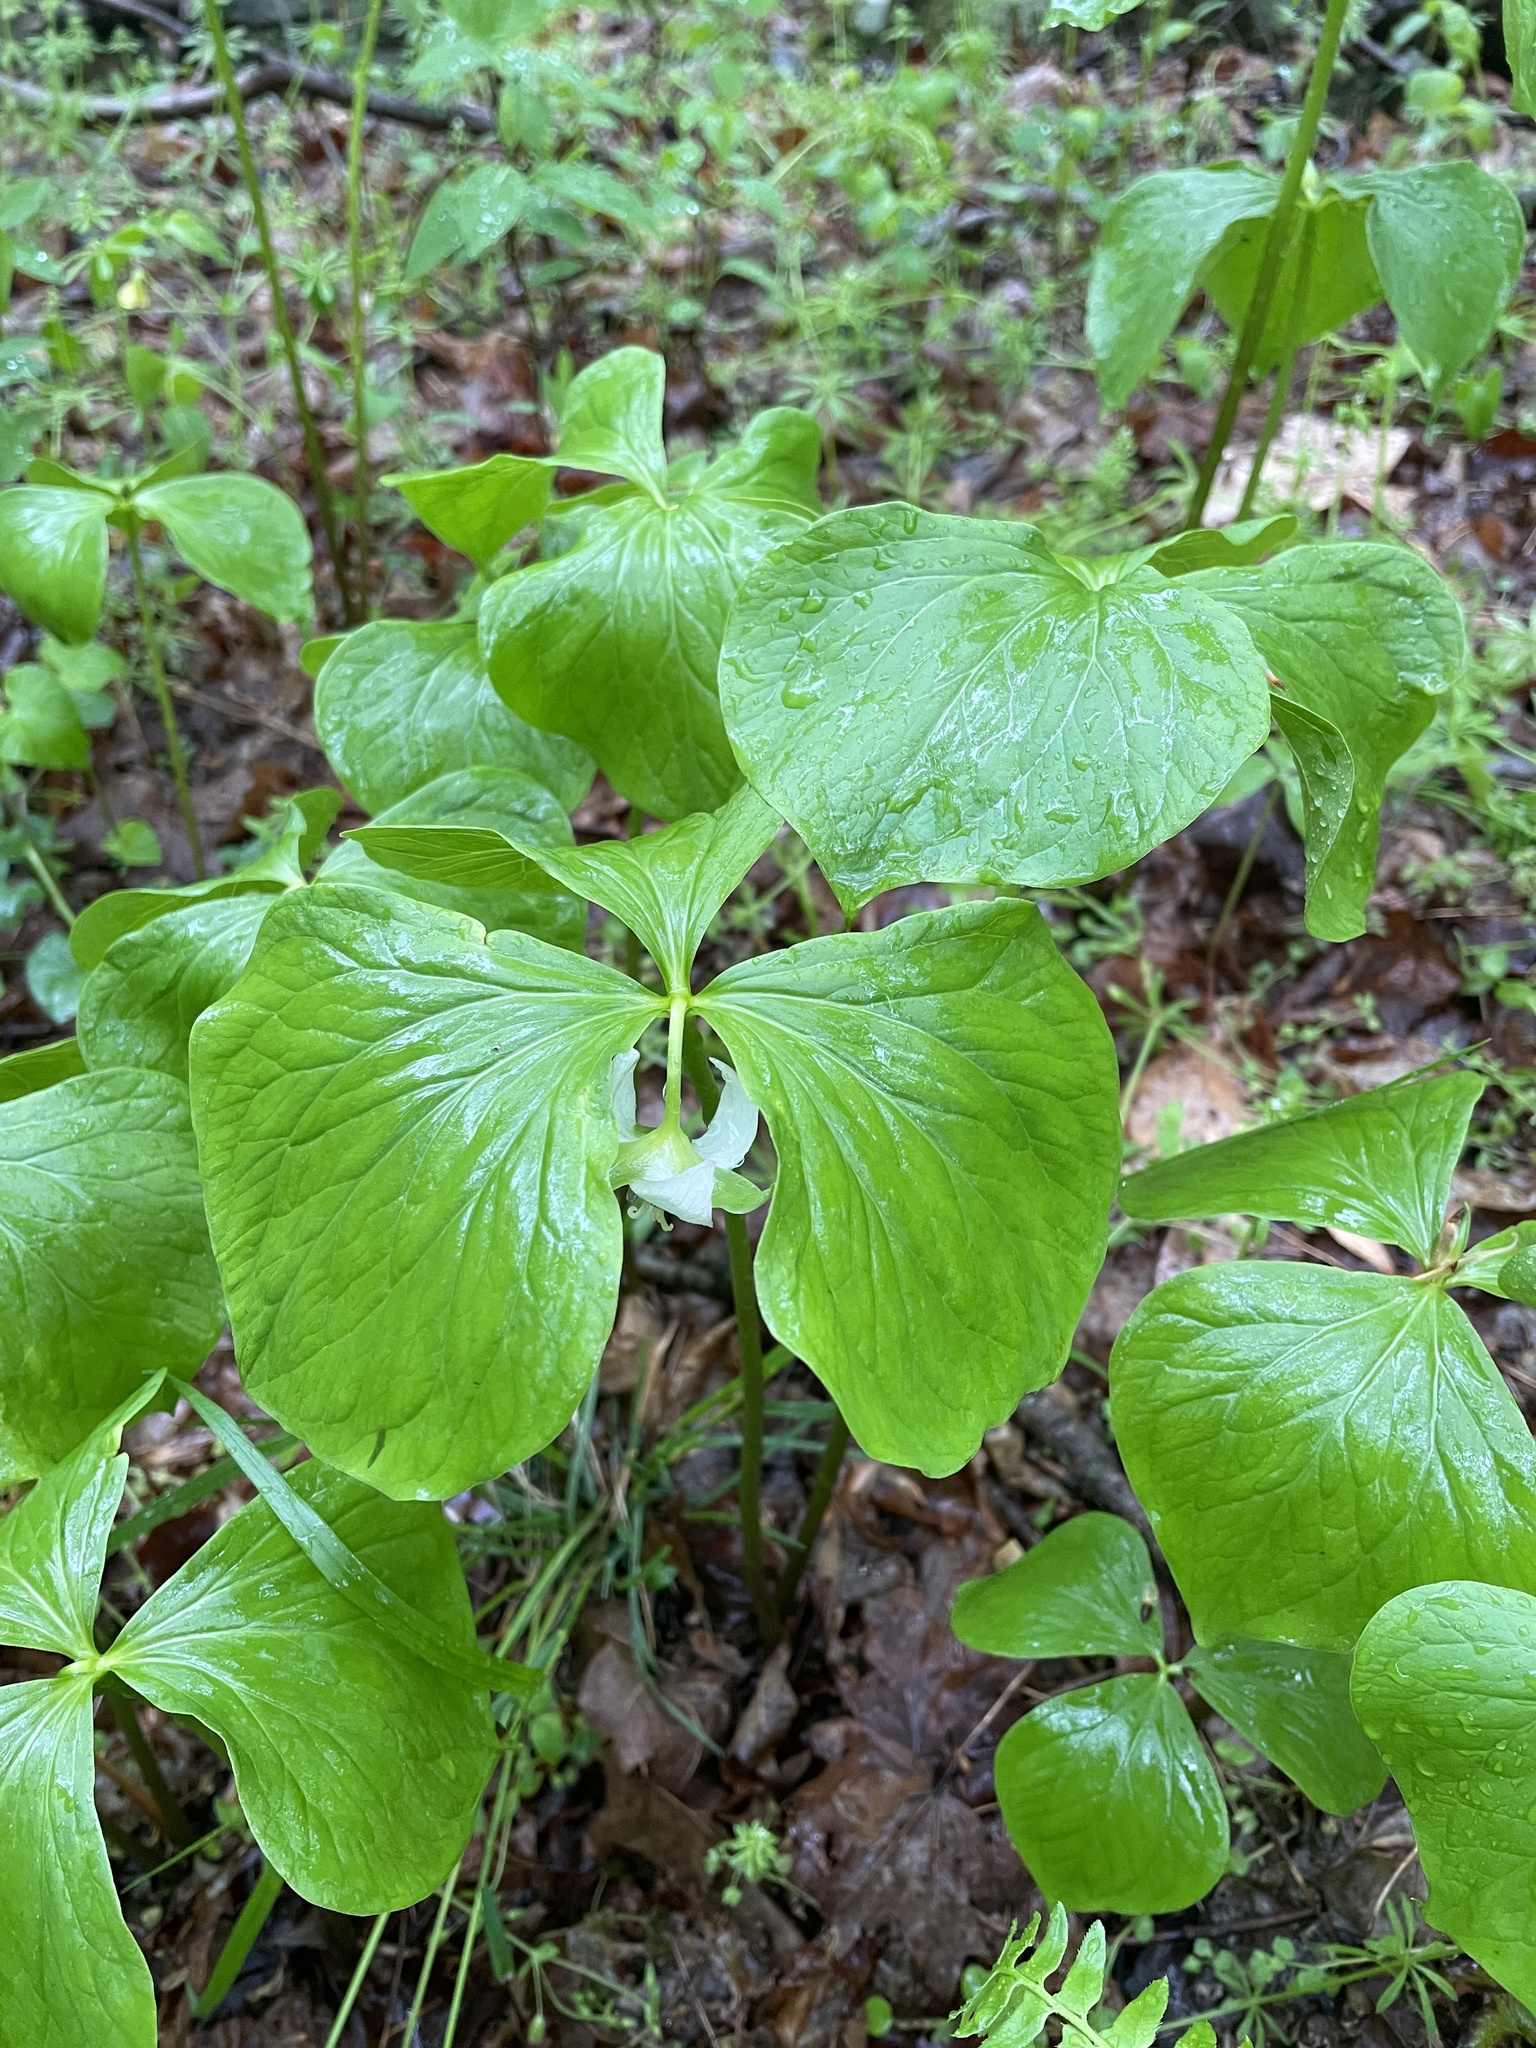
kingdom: Plantae
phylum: Tracheophyta
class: Liliopsida
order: Liliales
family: Melanthiaceae
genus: Trillium
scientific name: Trillium cernuum
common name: Nodding trillium
